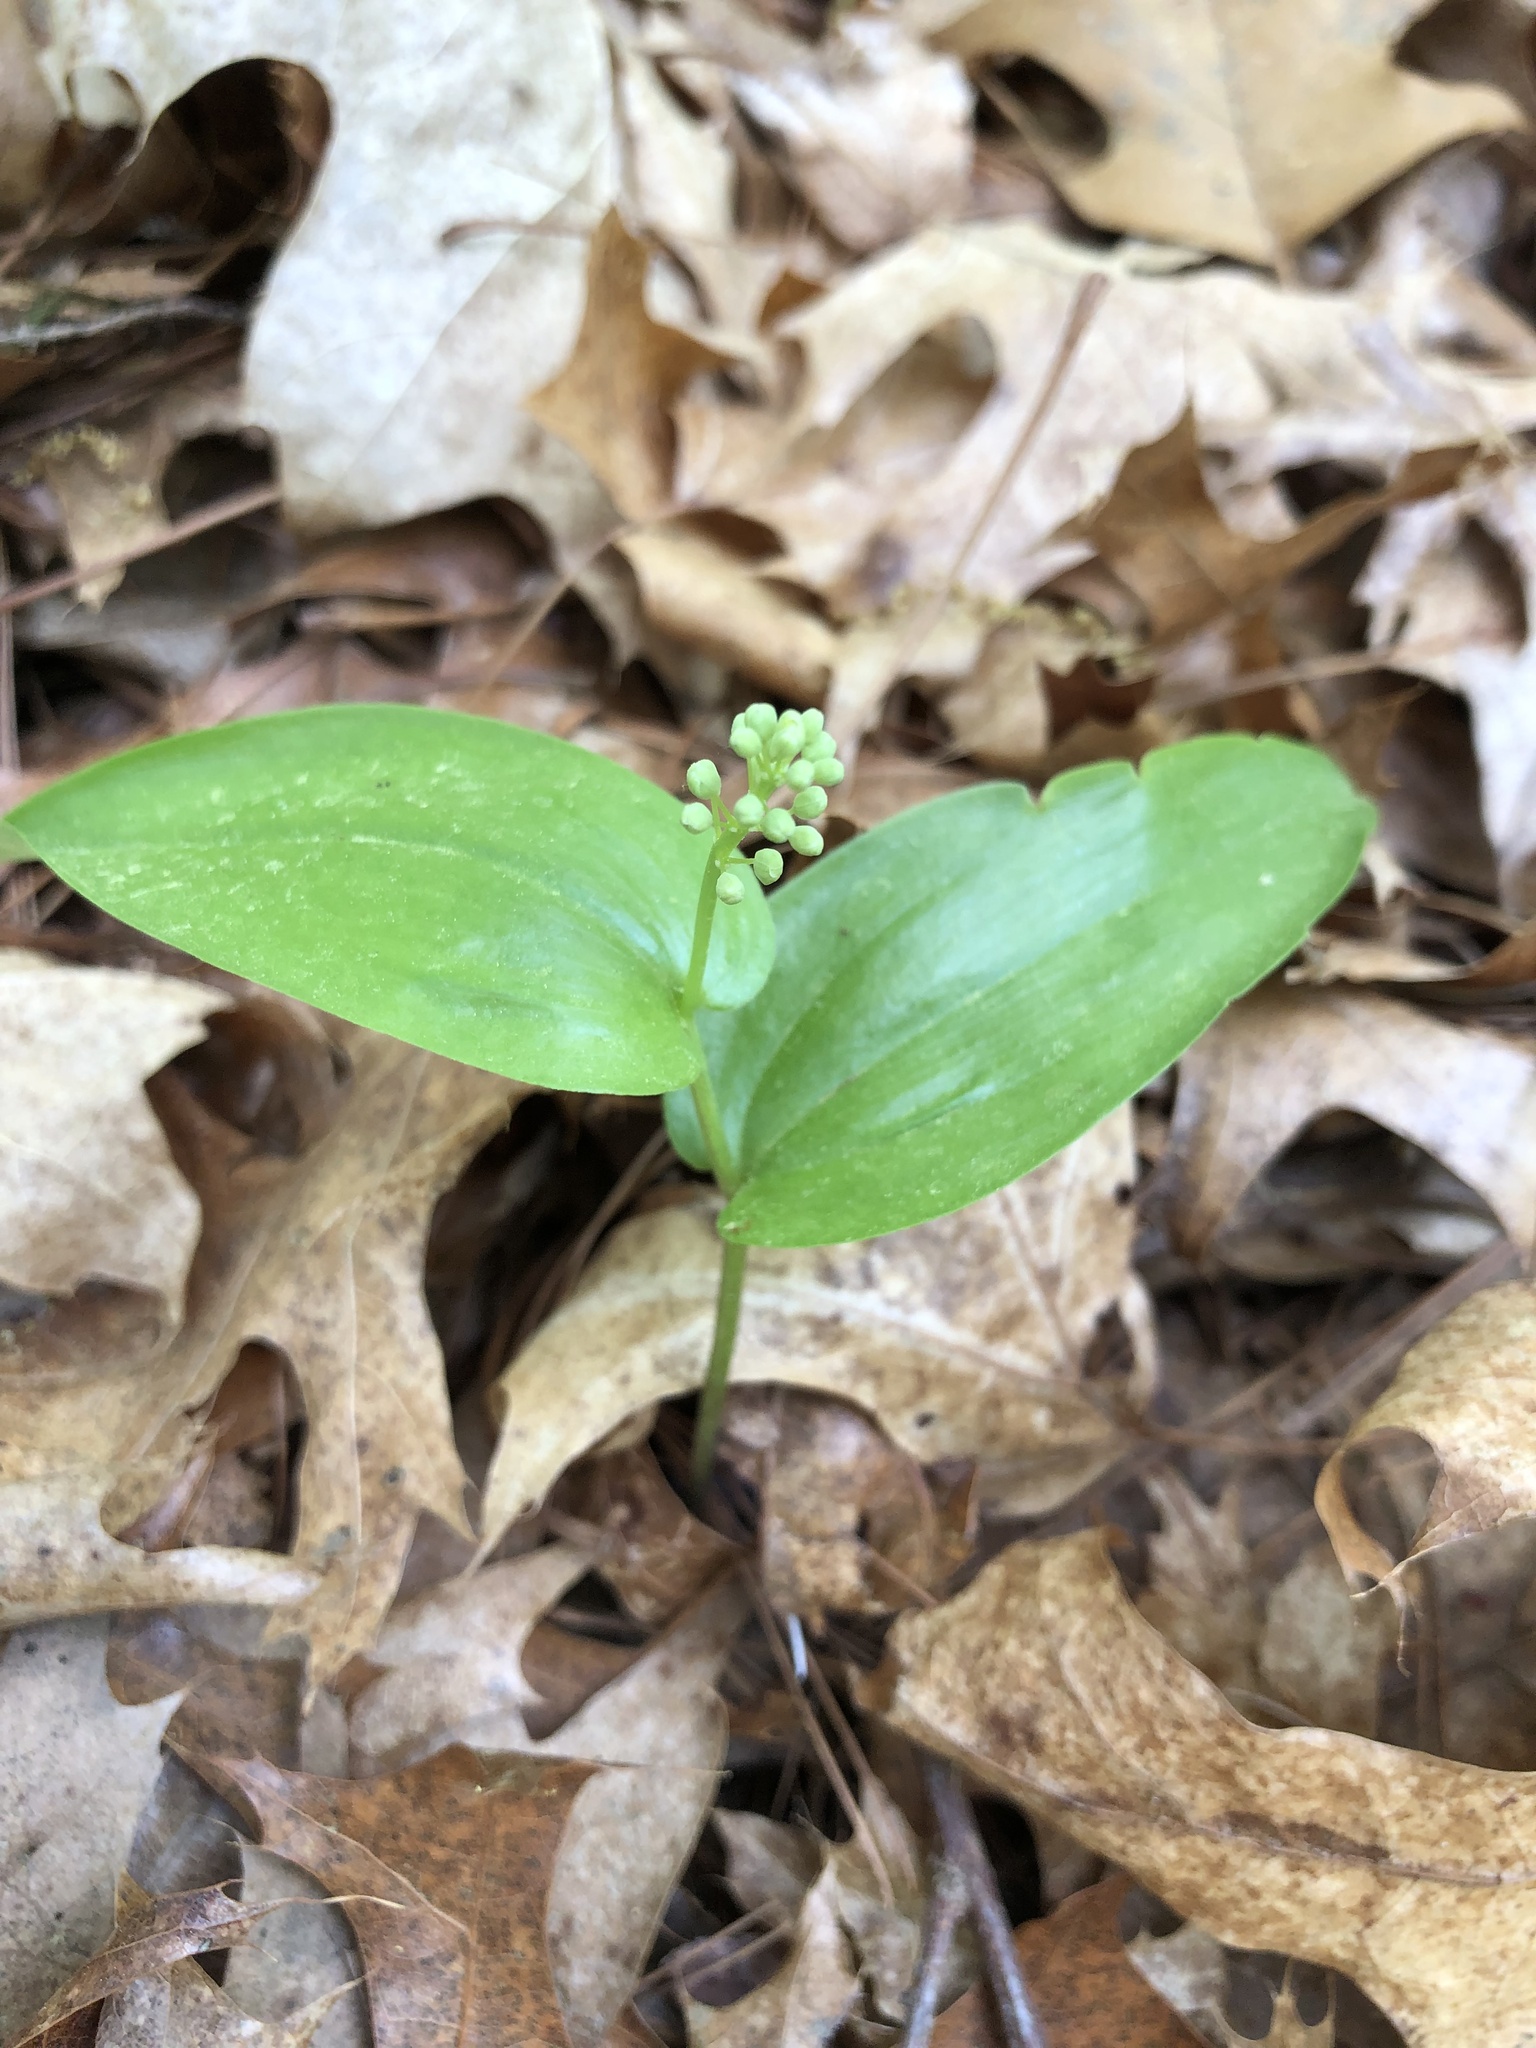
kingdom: Plantae
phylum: Tracheophyta
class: Liliopsida
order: Asparagales
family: Asparagaceae
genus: Maianthemum
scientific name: Maianthemum canadense
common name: False lily-of-the-valley
